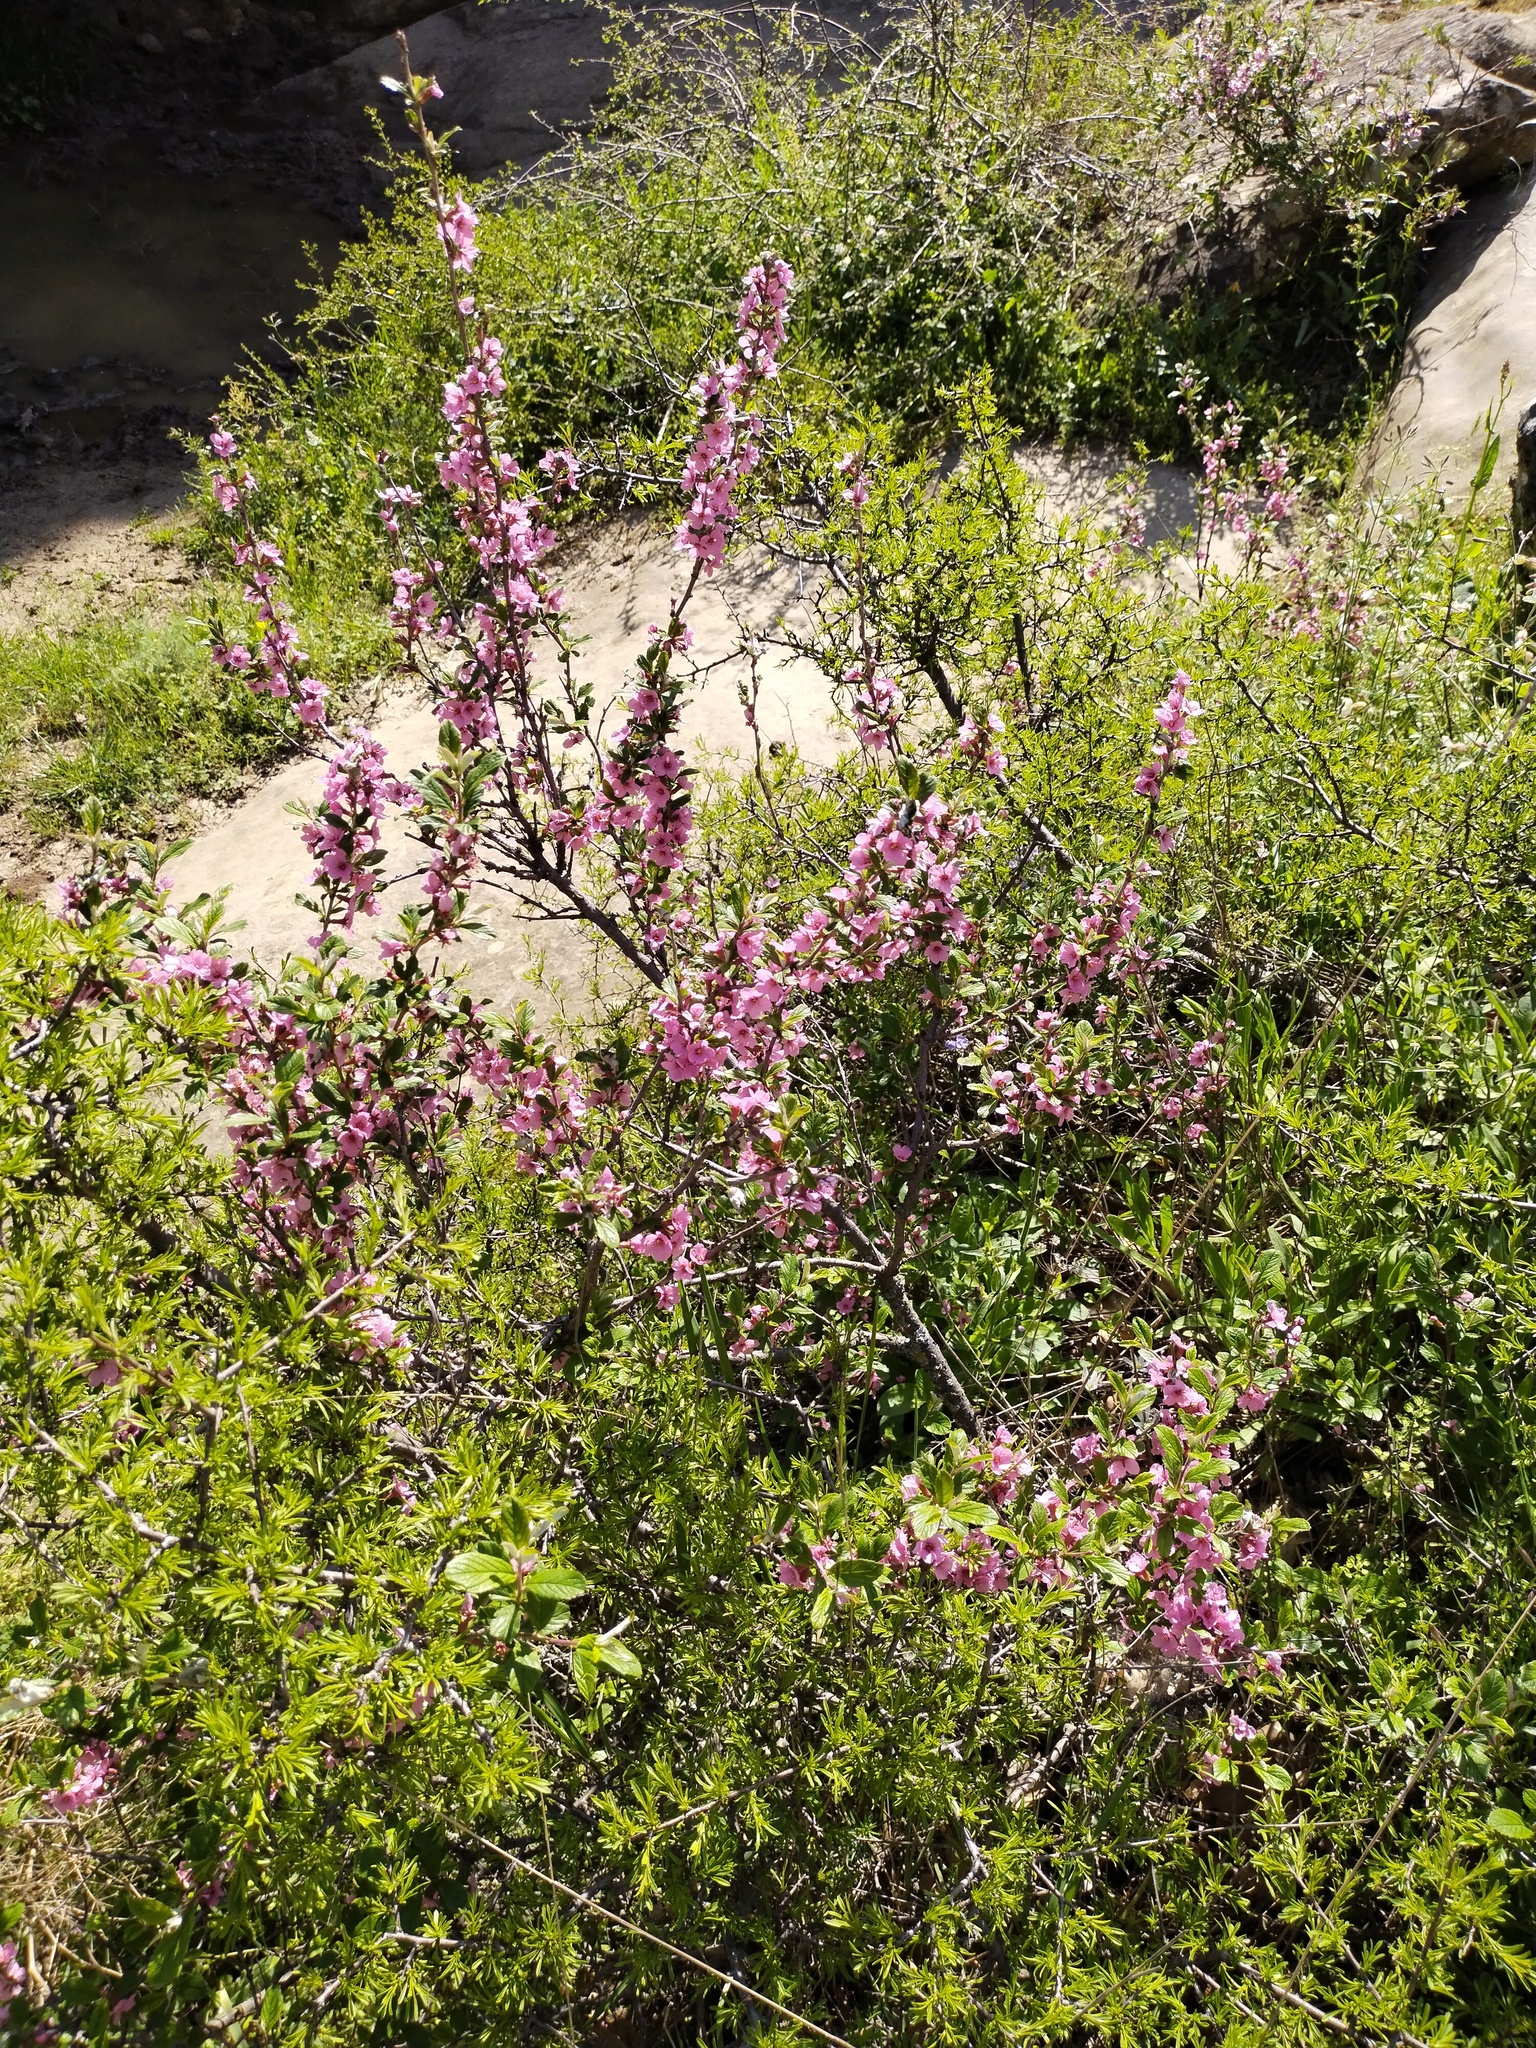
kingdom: Plantae
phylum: Tracheophyta
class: Magnoliopsida
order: Rosales
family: Rosaceae
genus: Prunus
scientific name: Prunus tenella
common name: Dwarf russian almond
